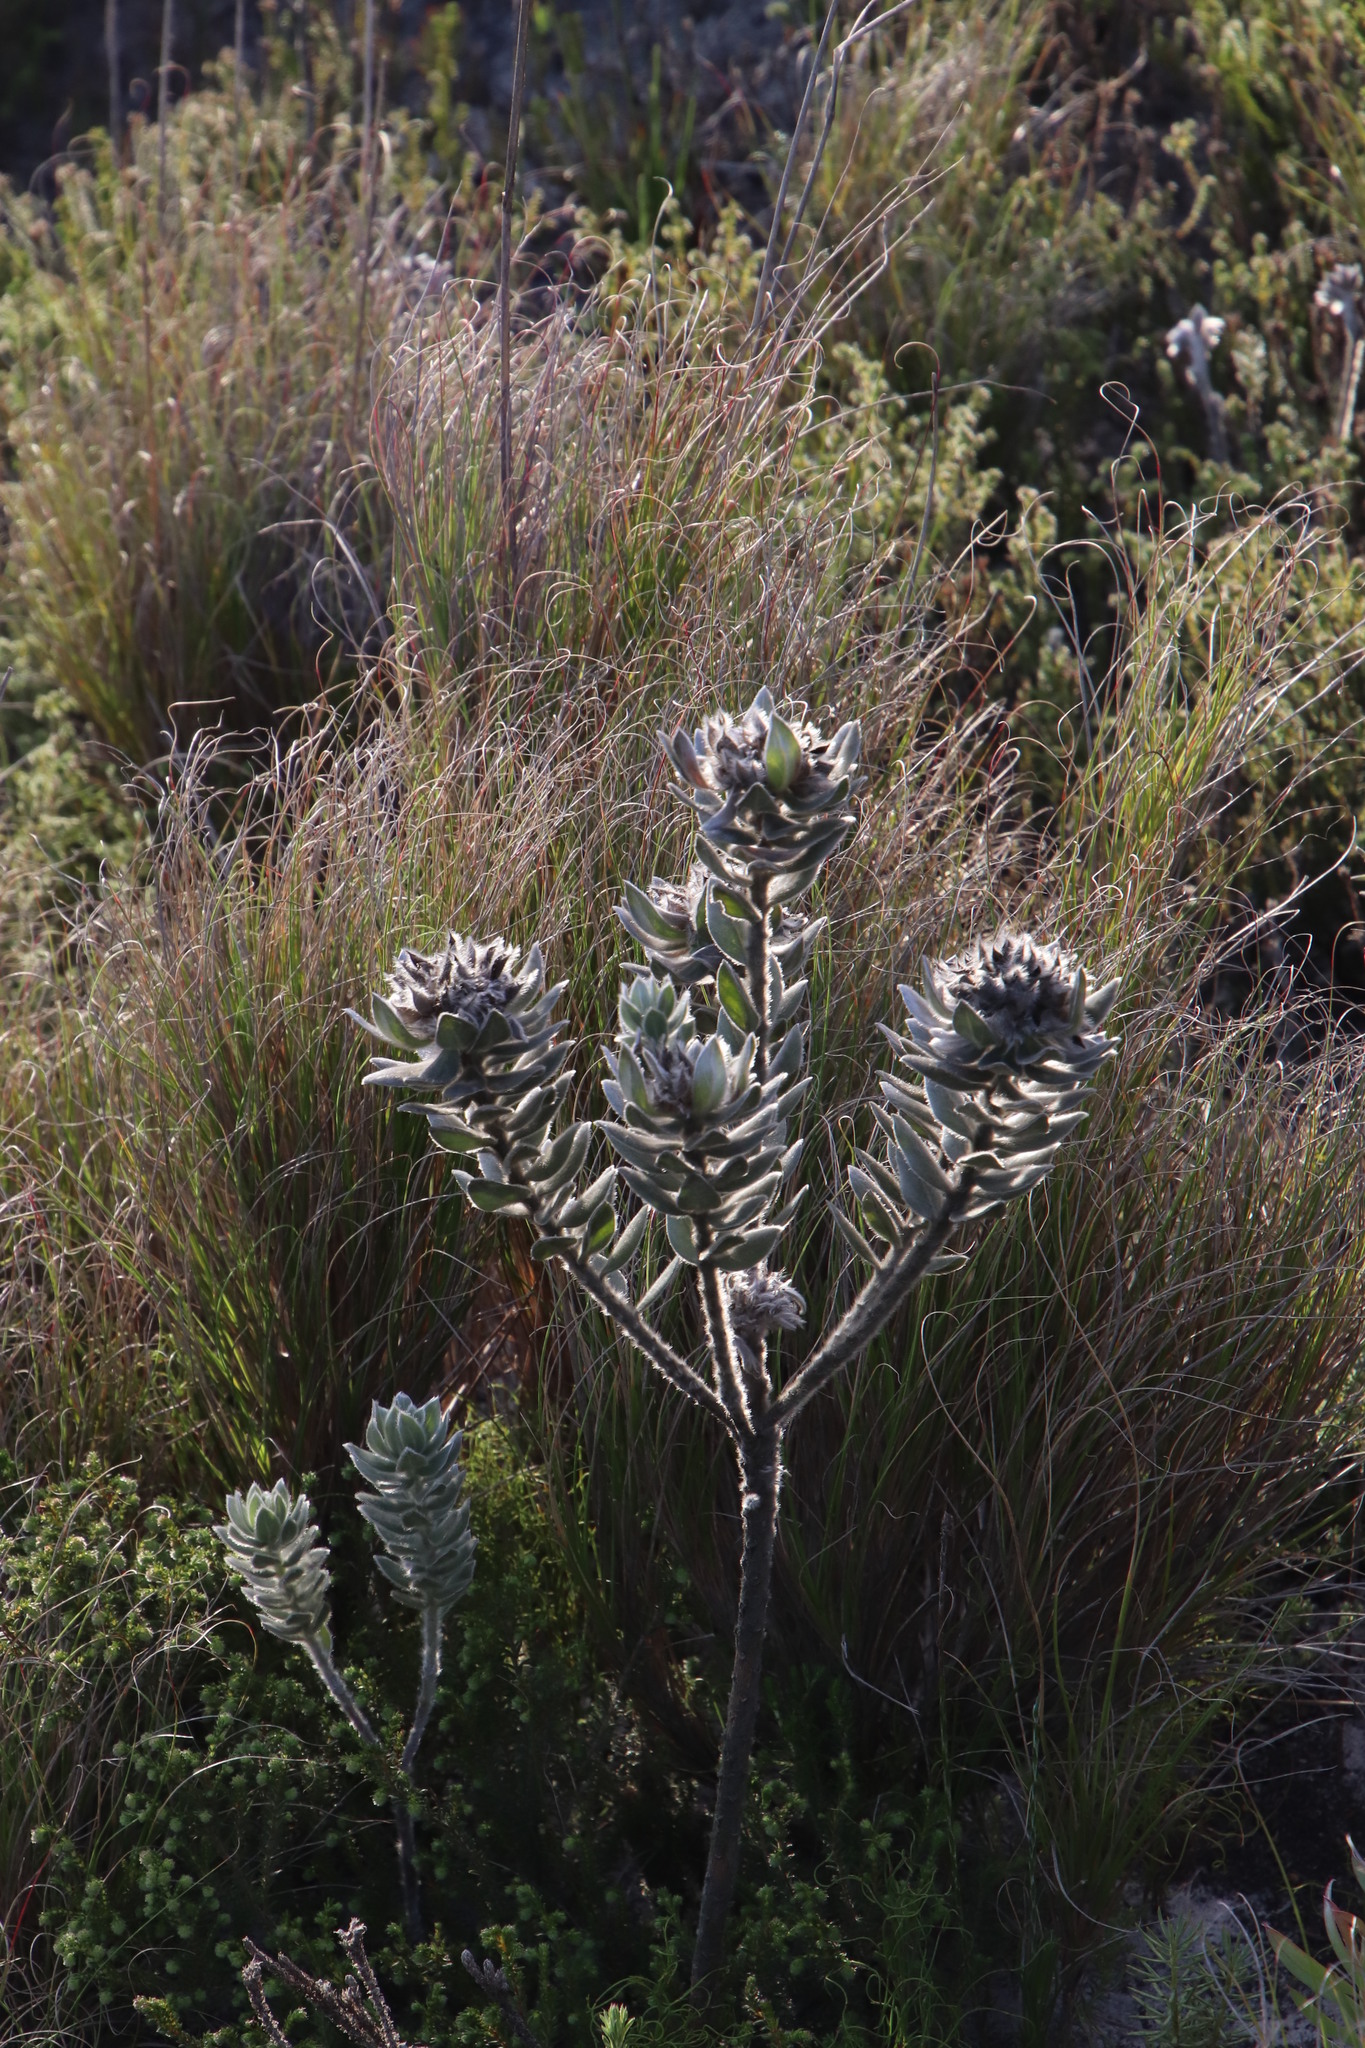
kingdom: Plantae
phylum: Tracheophyta
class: Magnoliopsida
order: Fabales
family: Fabaceae
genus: Xiphotheca
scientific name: Xiphotheca fruticosa
